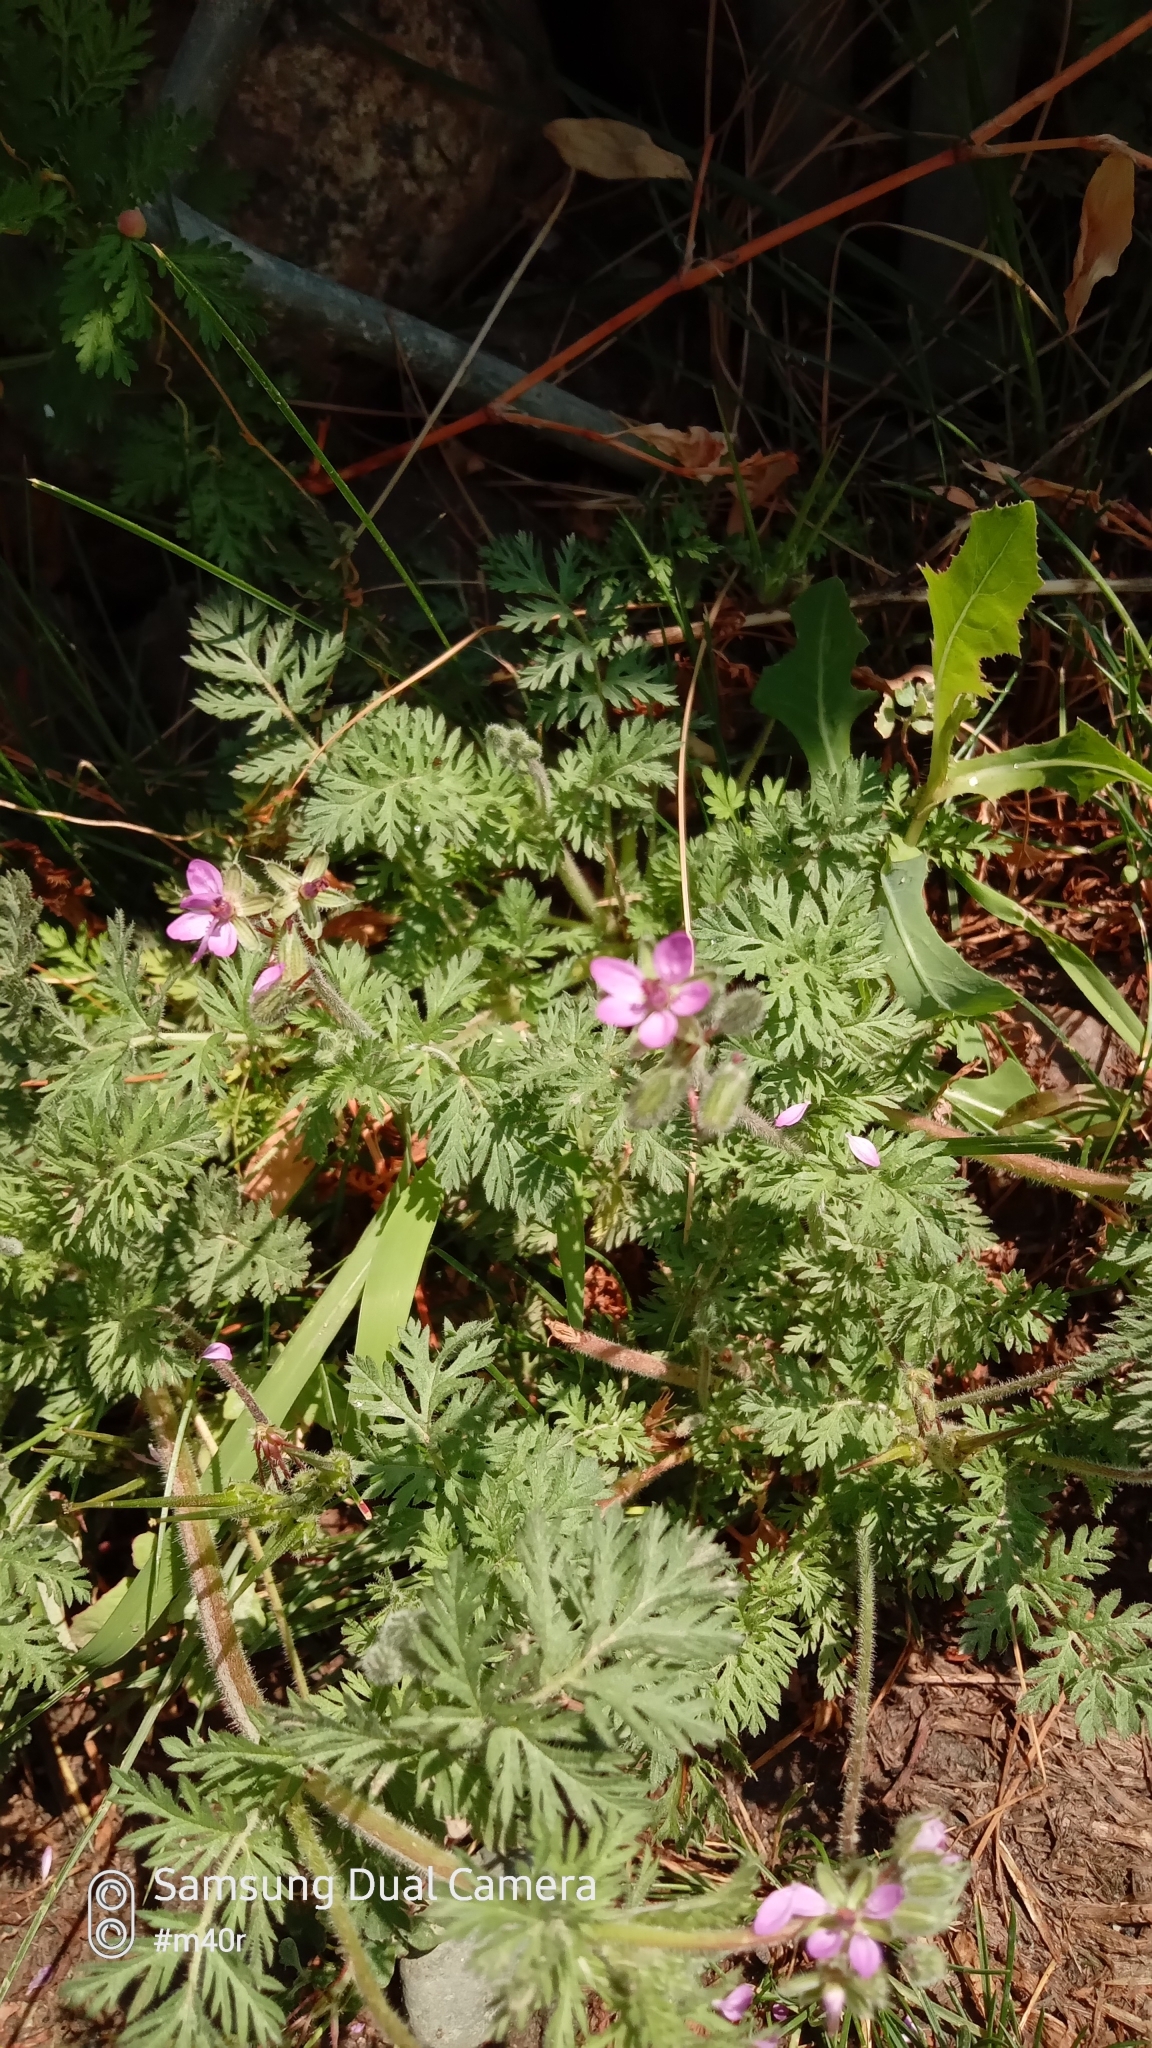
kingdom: Plantae
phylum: Tracheophyta
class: Magnoliopsida
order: Geraniales
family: Geraniaceae
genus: Erodium
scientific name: Erodium cicutarium
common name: Common stork's-bill
